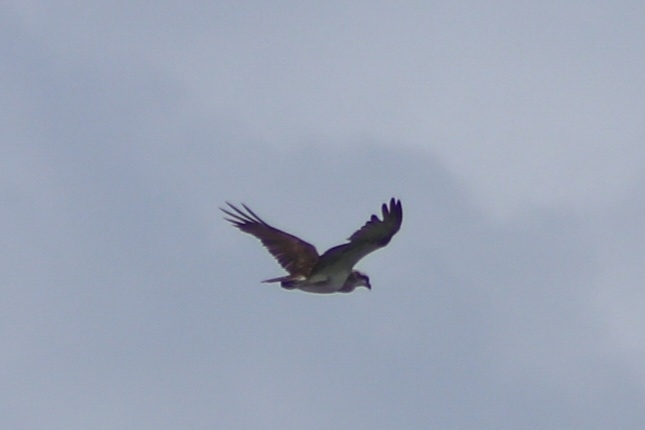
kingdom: Animalia
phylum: Chordata
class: Aves
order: Accipitriformes
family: Pandionidae
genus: Pandion
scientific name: Pandion haliaetus
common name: Osprey
